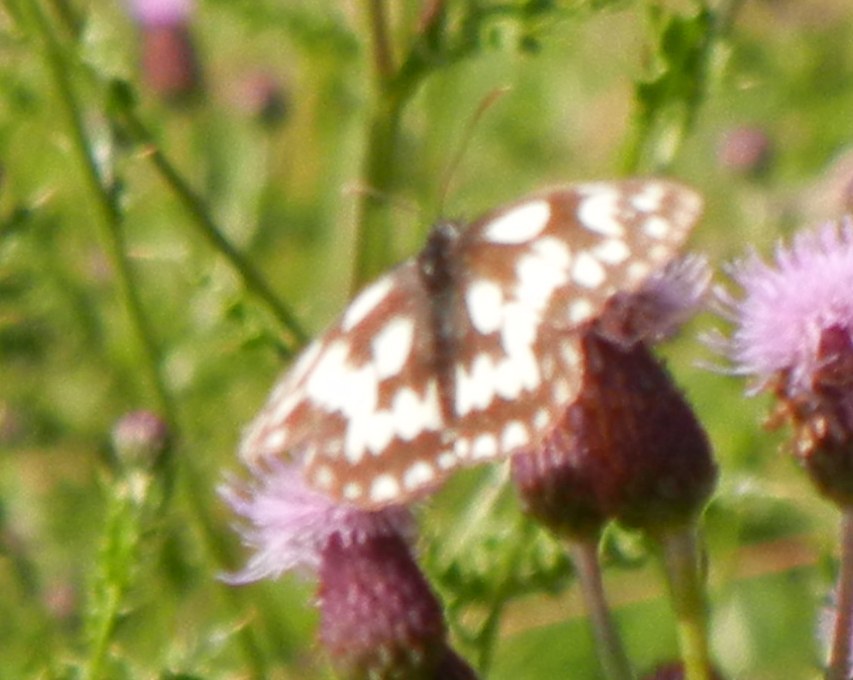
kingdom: Animalia
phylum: Arthropoda
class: Insecta
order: Lepidoptera
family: Nymphalidae
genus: Melanargia
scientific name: Melanargia galathea
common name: Marbled white
